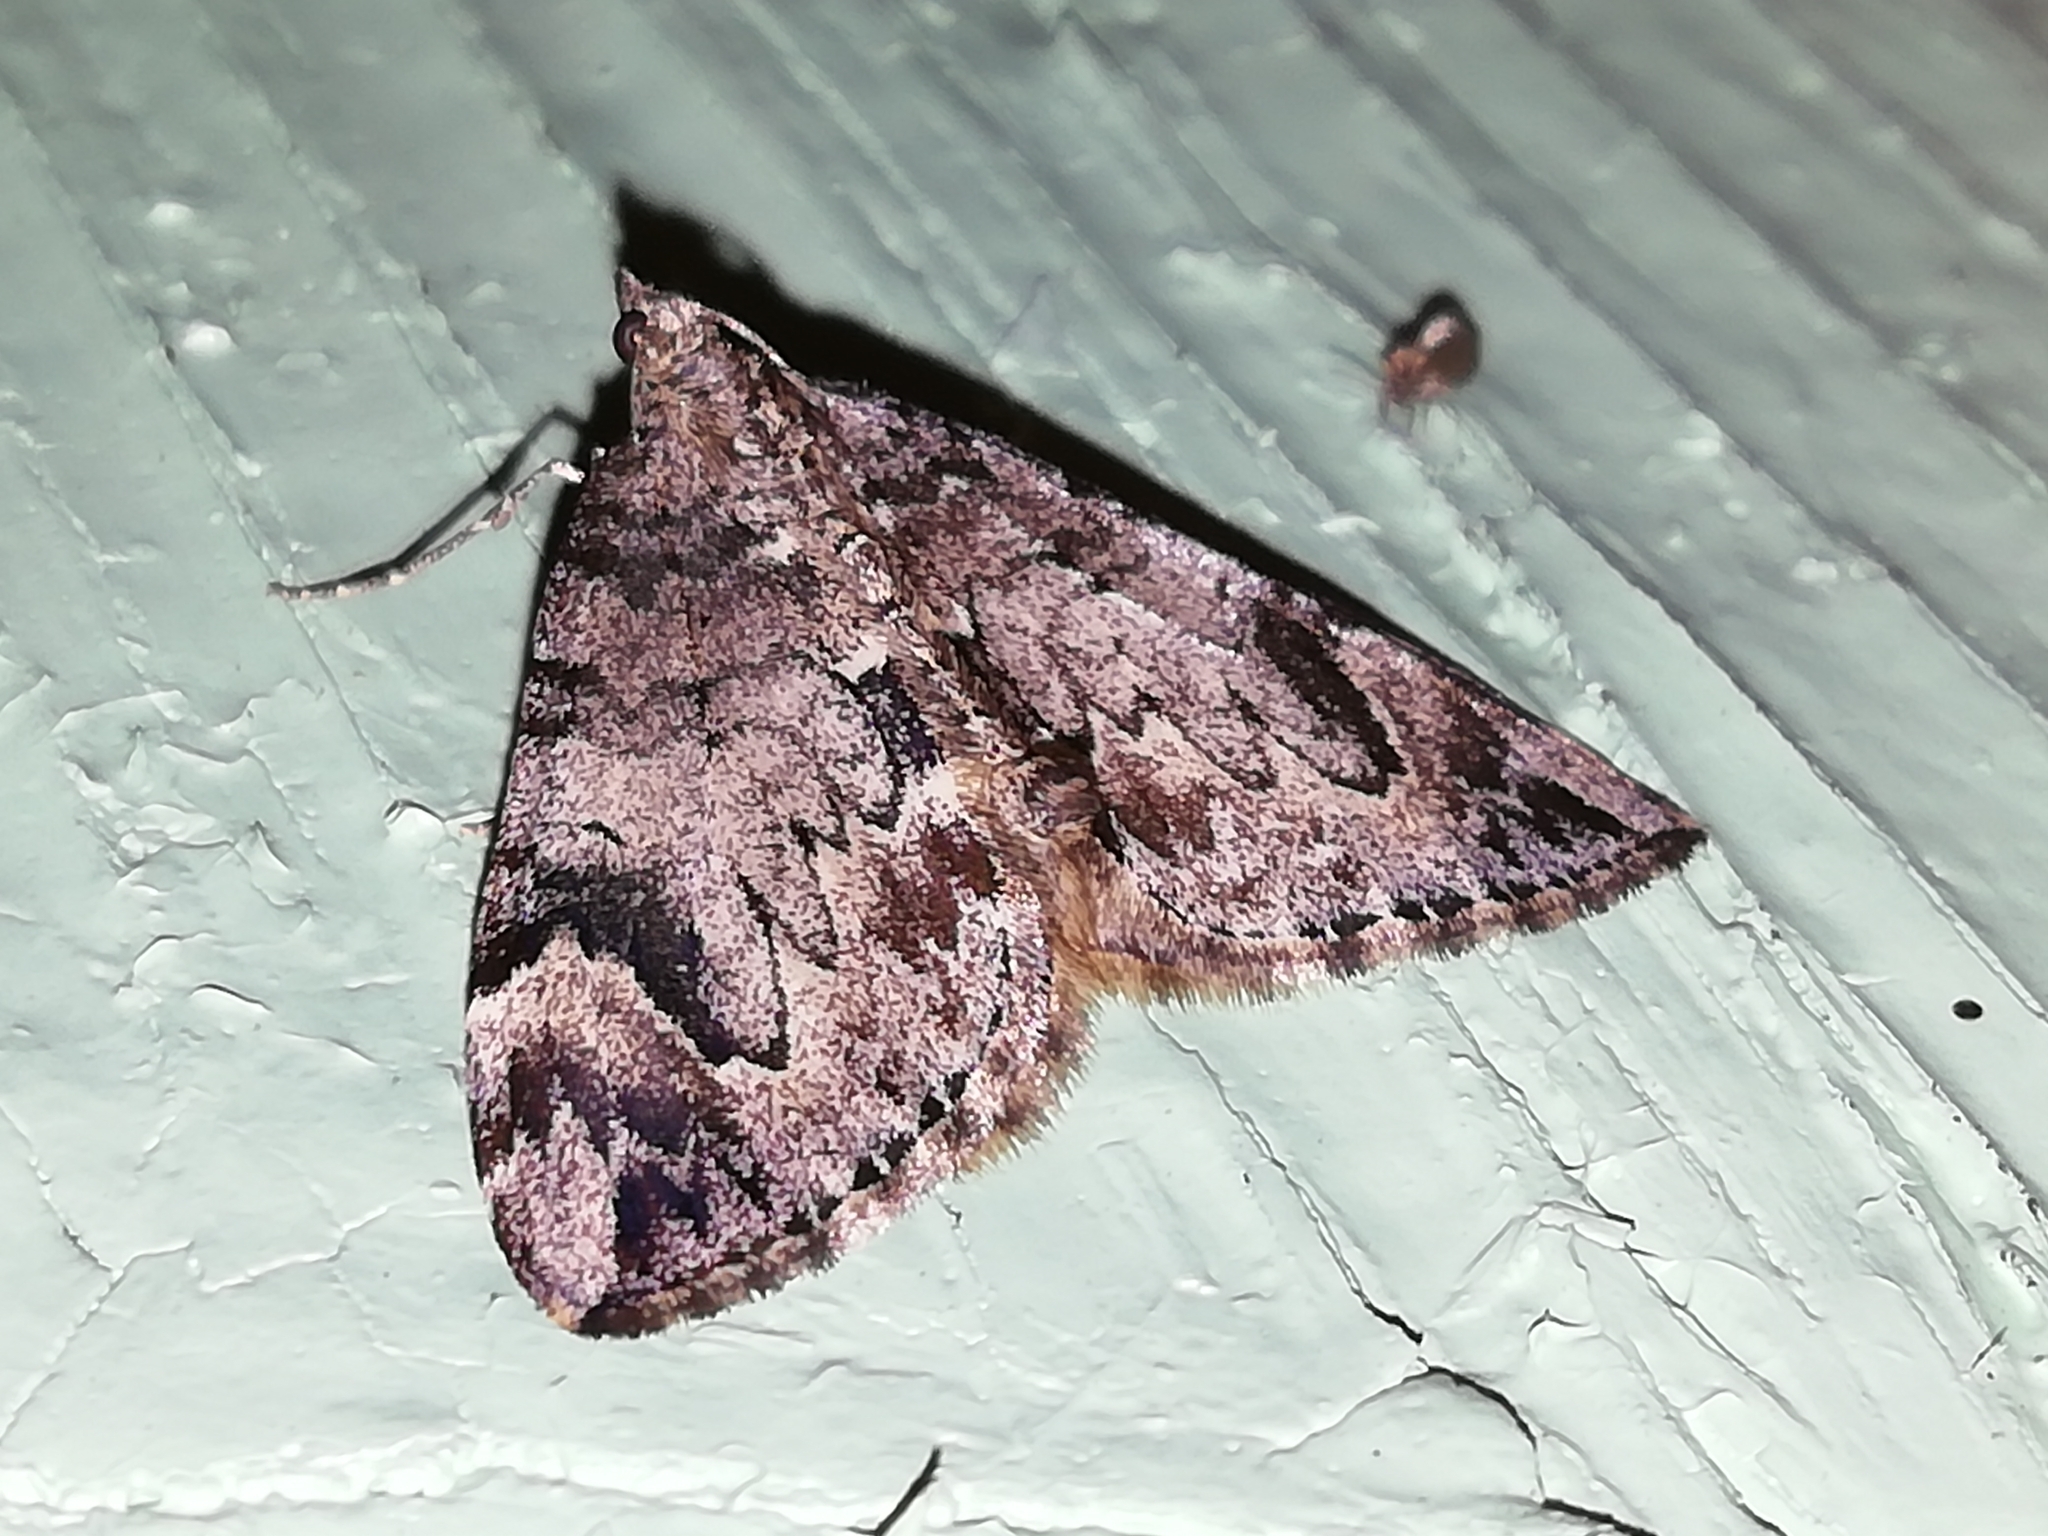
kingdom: Animalia
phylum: Arthropoda
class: Insecta
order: Lepidoptera
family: Geometridae
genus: Dysstroma
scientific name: Dysstroma citrata
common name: Dark marbled carpet
